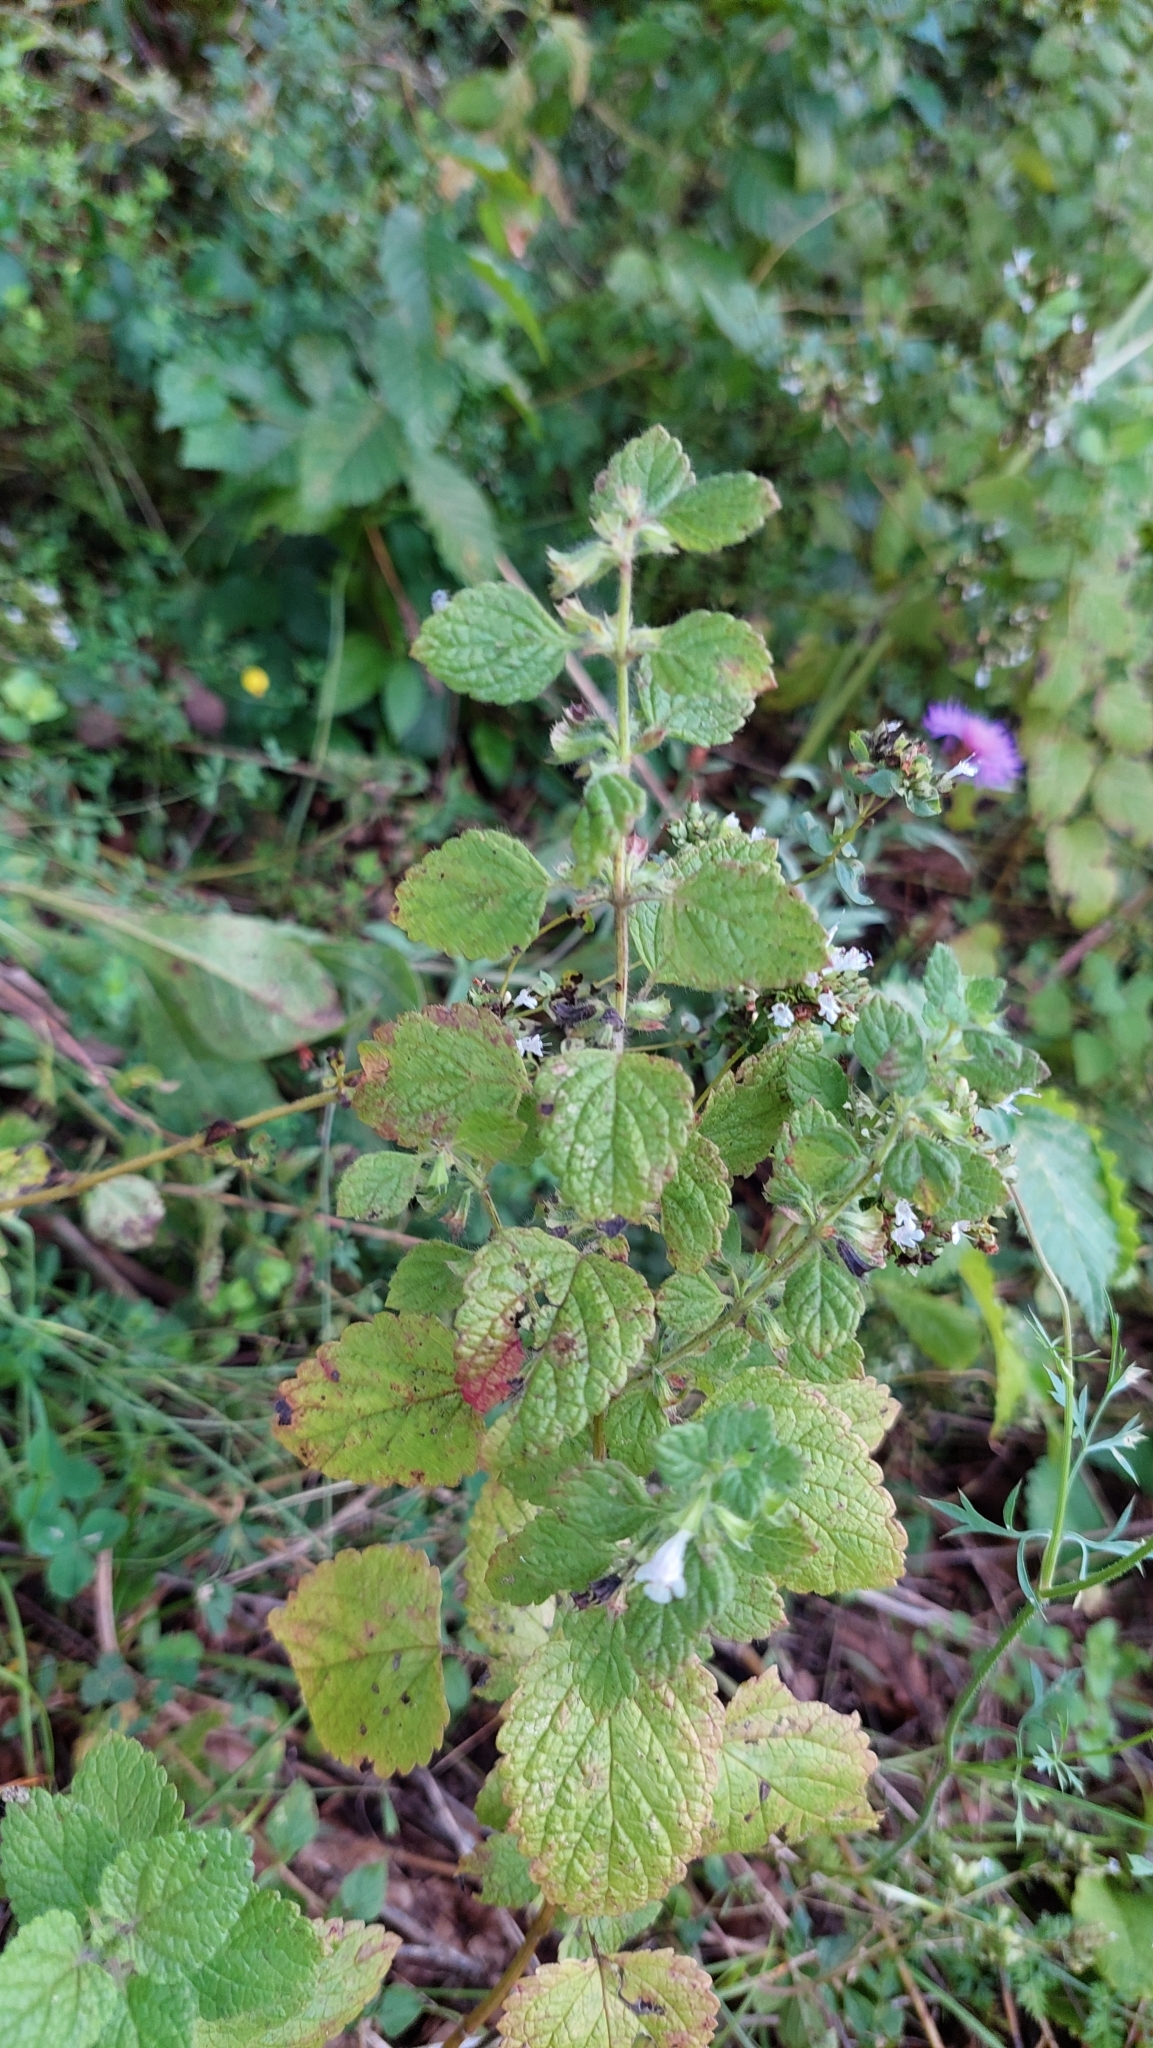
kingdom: Plantae
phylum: Tracheophyta
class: Magnoliopsida
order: Lamiales
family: Lamiaceae
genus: Melissa
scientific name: Melissa officinalis
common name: Balm
